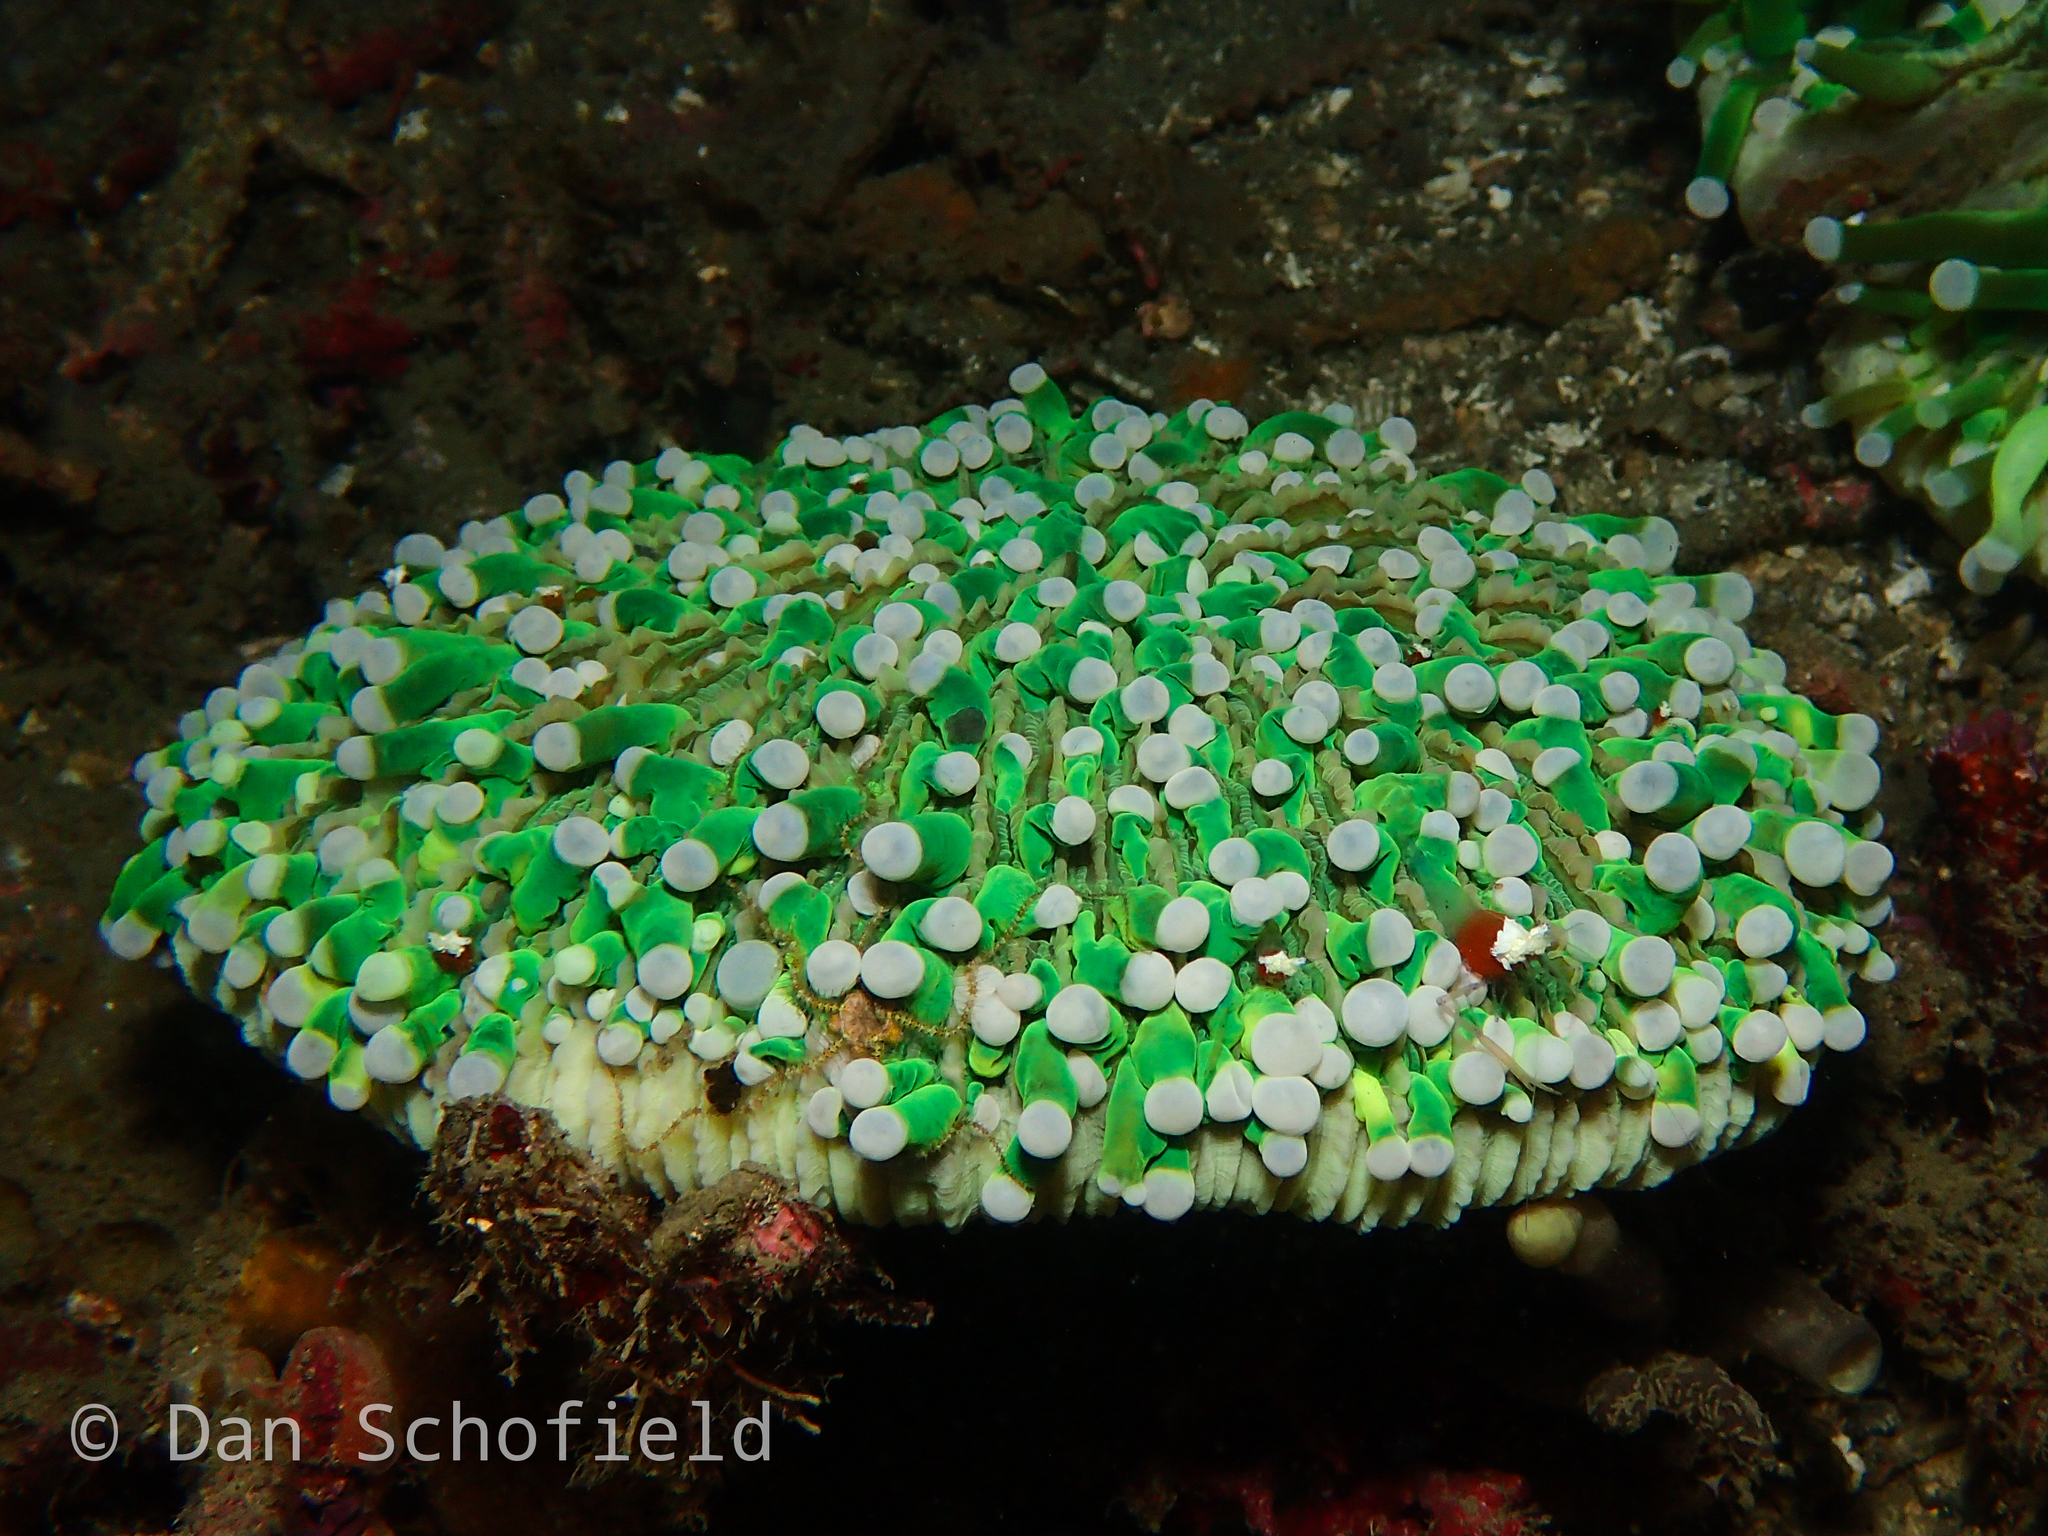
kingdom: Animalia
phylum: Cnidaria
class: Anthozoa
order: Scleractinia
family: Fungiidae
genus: Heliofungia
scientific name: Heliofungia actiniformis
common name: Plate coral
